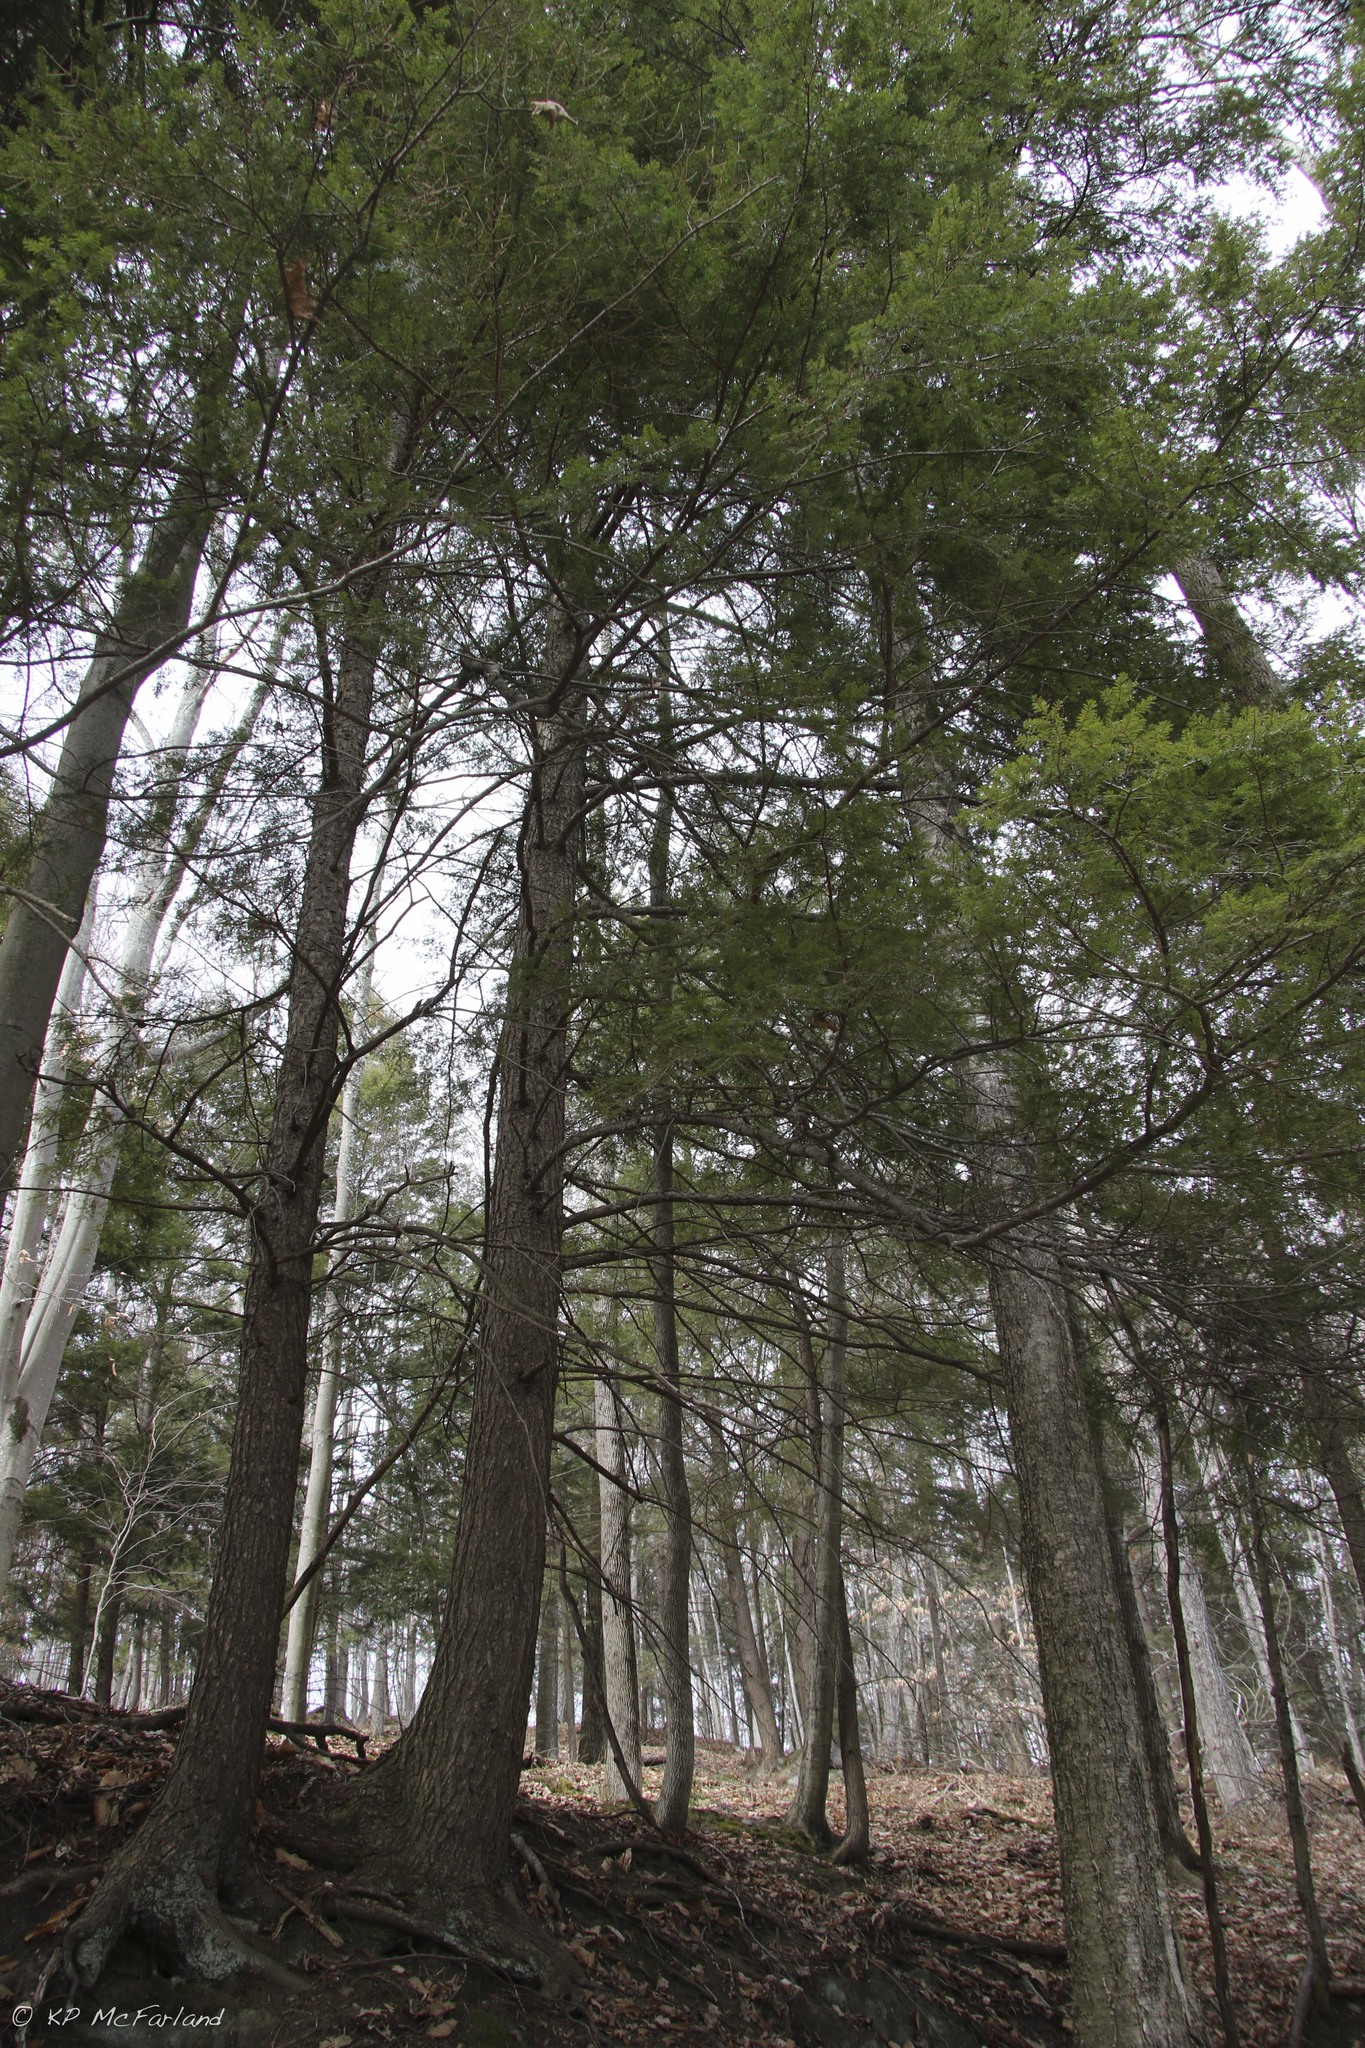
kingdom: Plantae
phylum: Tracheophyta
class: Pinopsida
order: Pinales
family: Pinaceae
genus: Tsuga
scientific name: Tsuga canadensis
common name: Eastern hemlock
